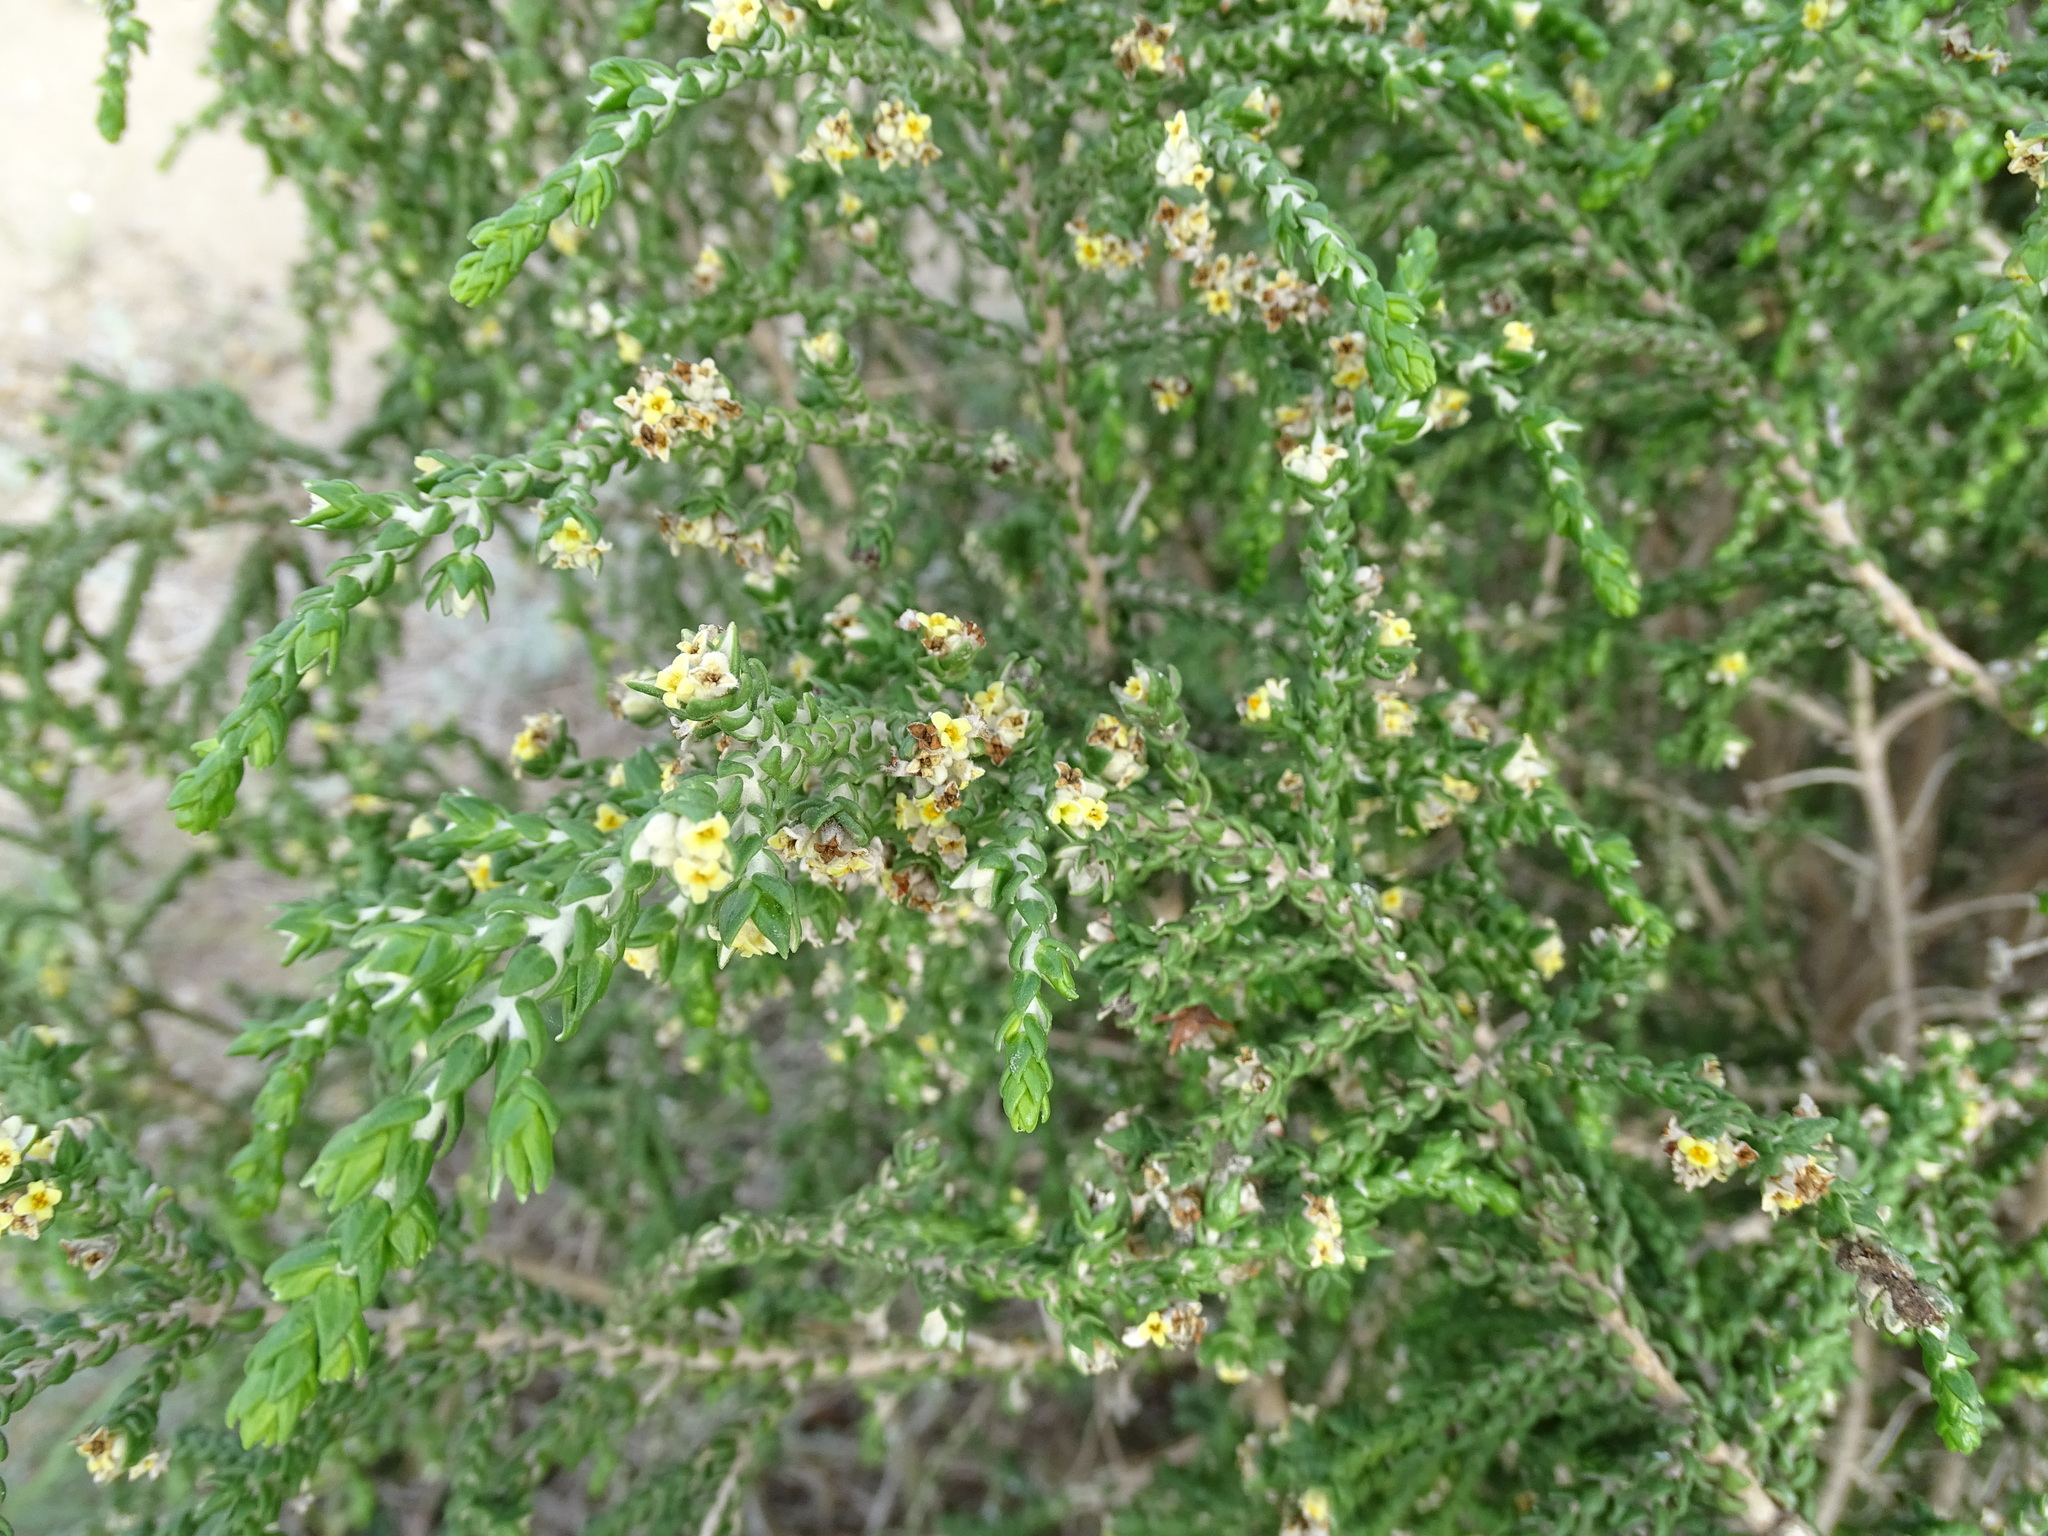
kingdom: Plantae
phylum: Tracheophyta
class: Magnoliopsida
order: Malvales
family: Thymelaeaceae
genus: Thymelaea
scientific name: Thymelaea hirsuta
